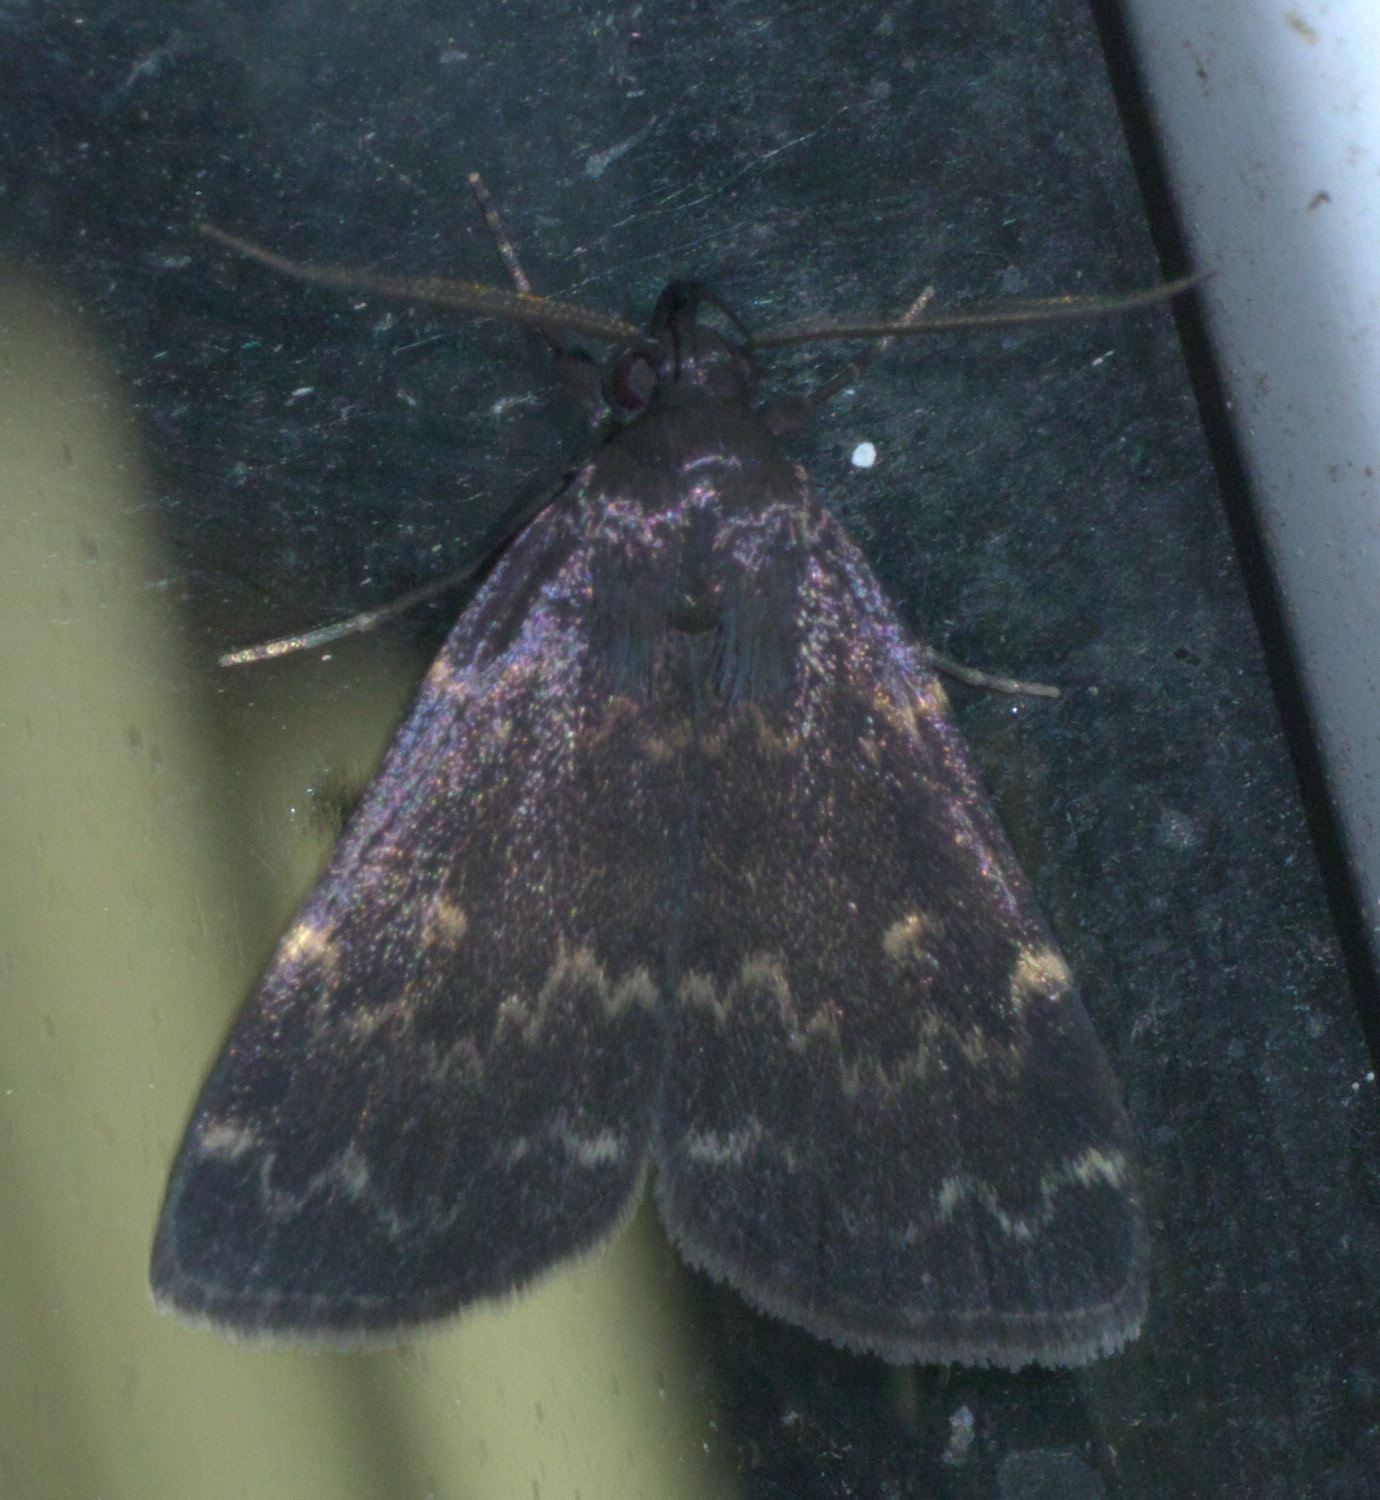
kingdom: Animalia
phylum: Arthropoda
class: Insecta
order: Lepidoptera
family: Erebidae
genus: Idia
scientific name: Idia lubricalis
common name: Twin-striped tabby
